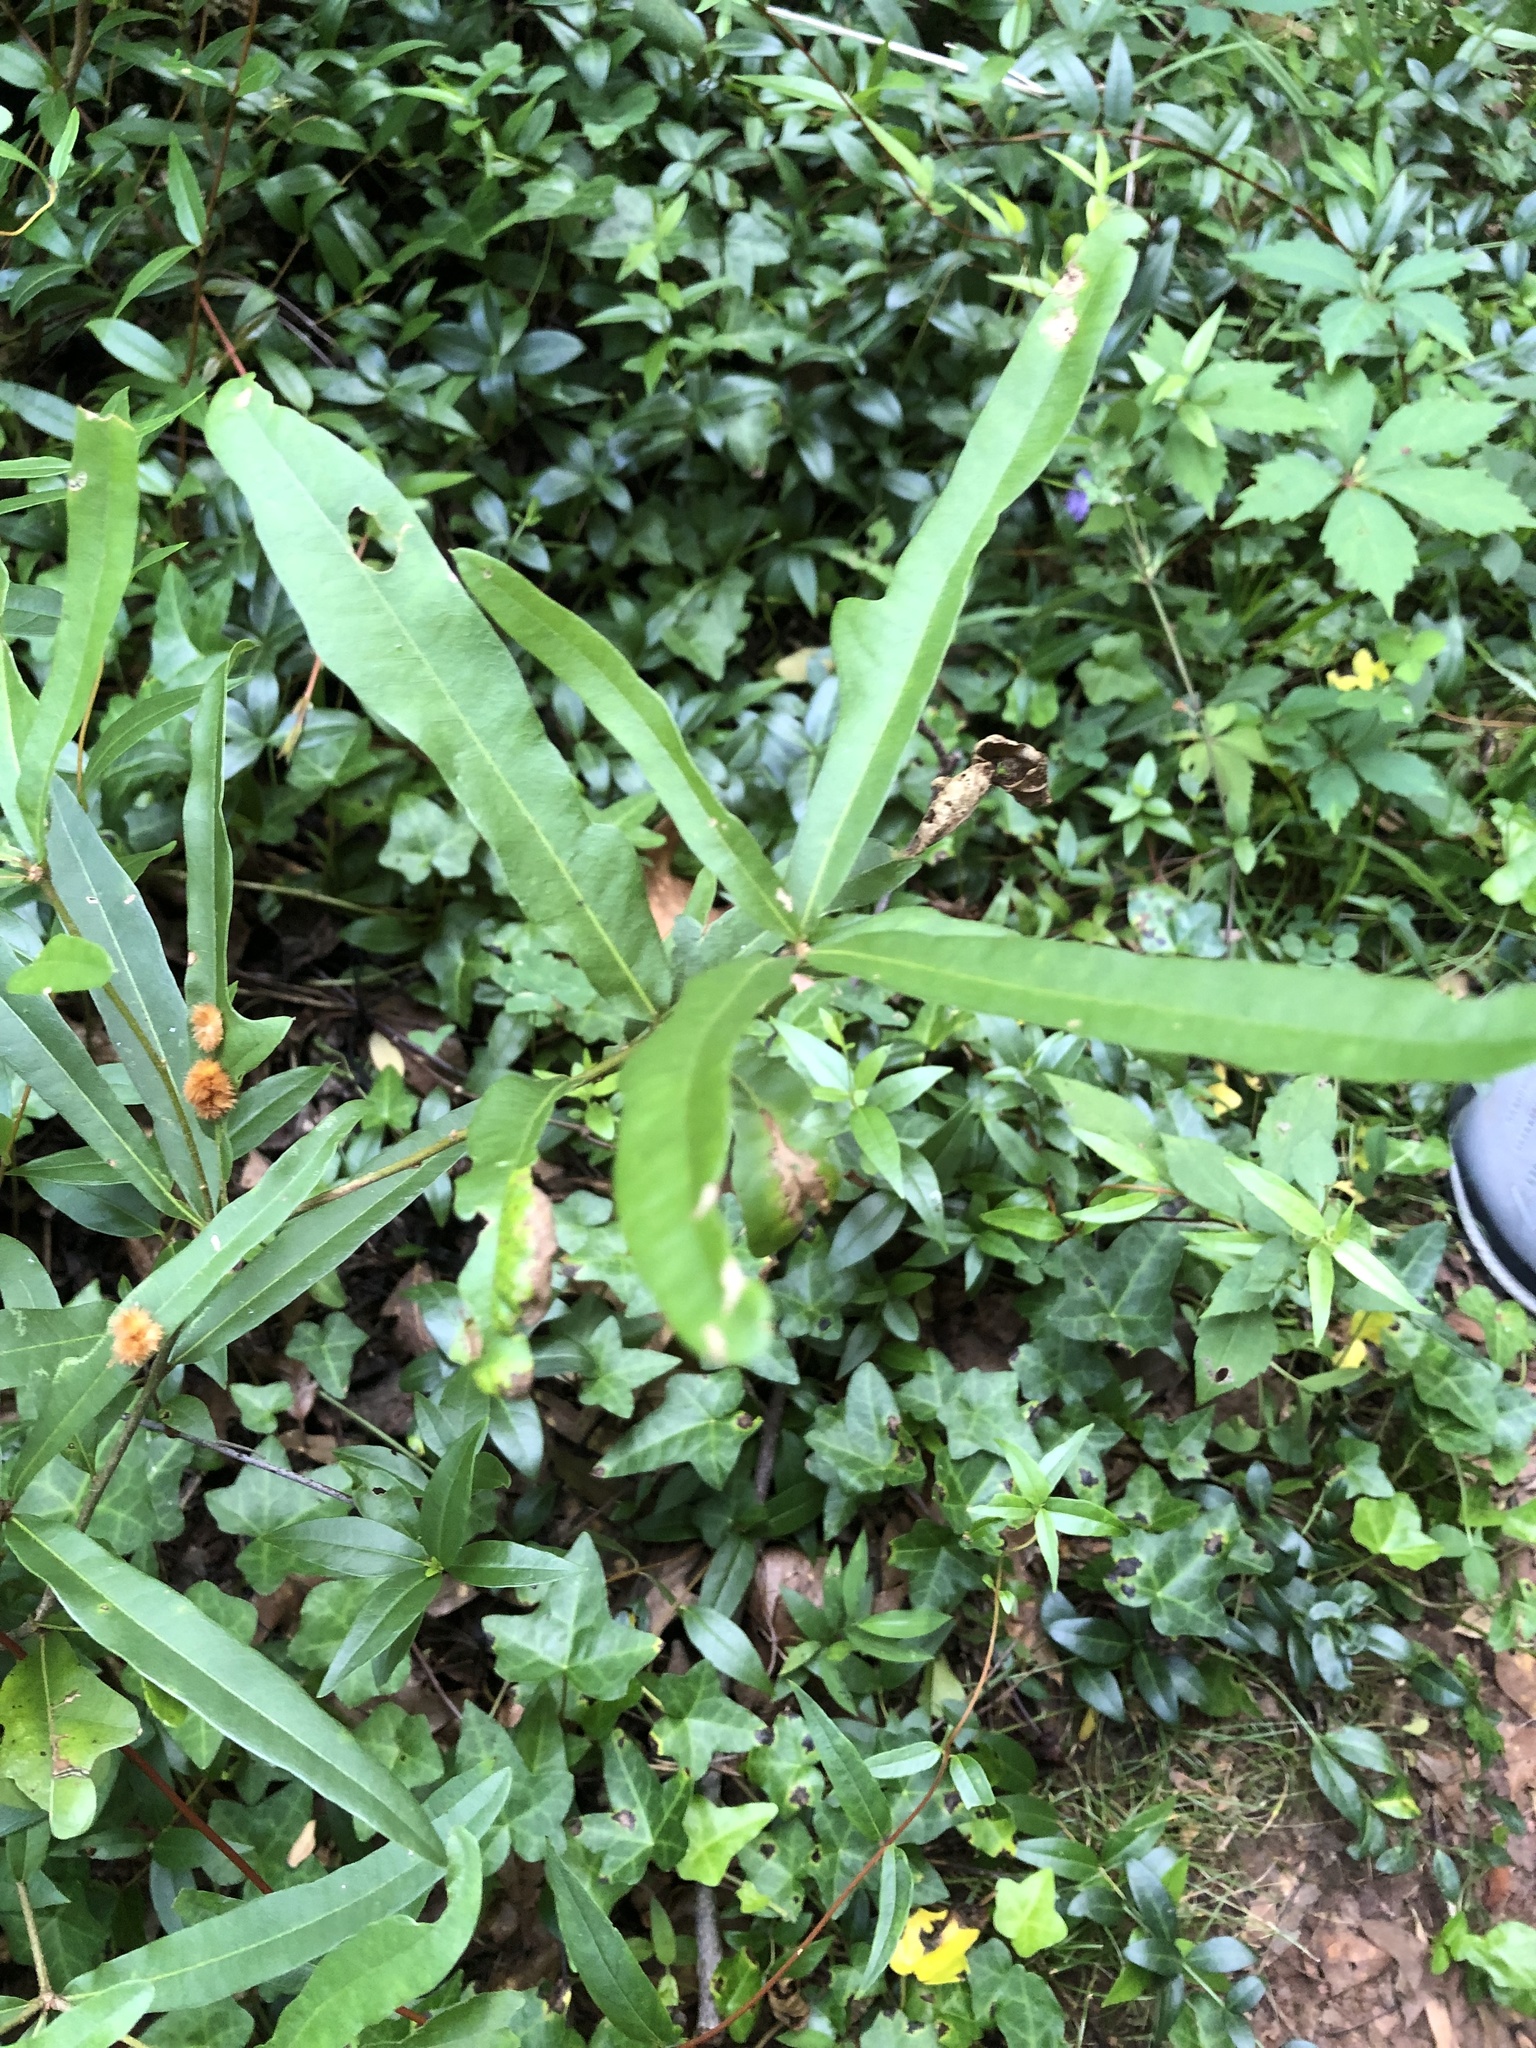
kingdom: Animalia
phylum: Arthropoda
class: Insecta
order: Hymenoptera
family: Cynipidae
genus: Callirhytis
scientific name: Callirhytis
